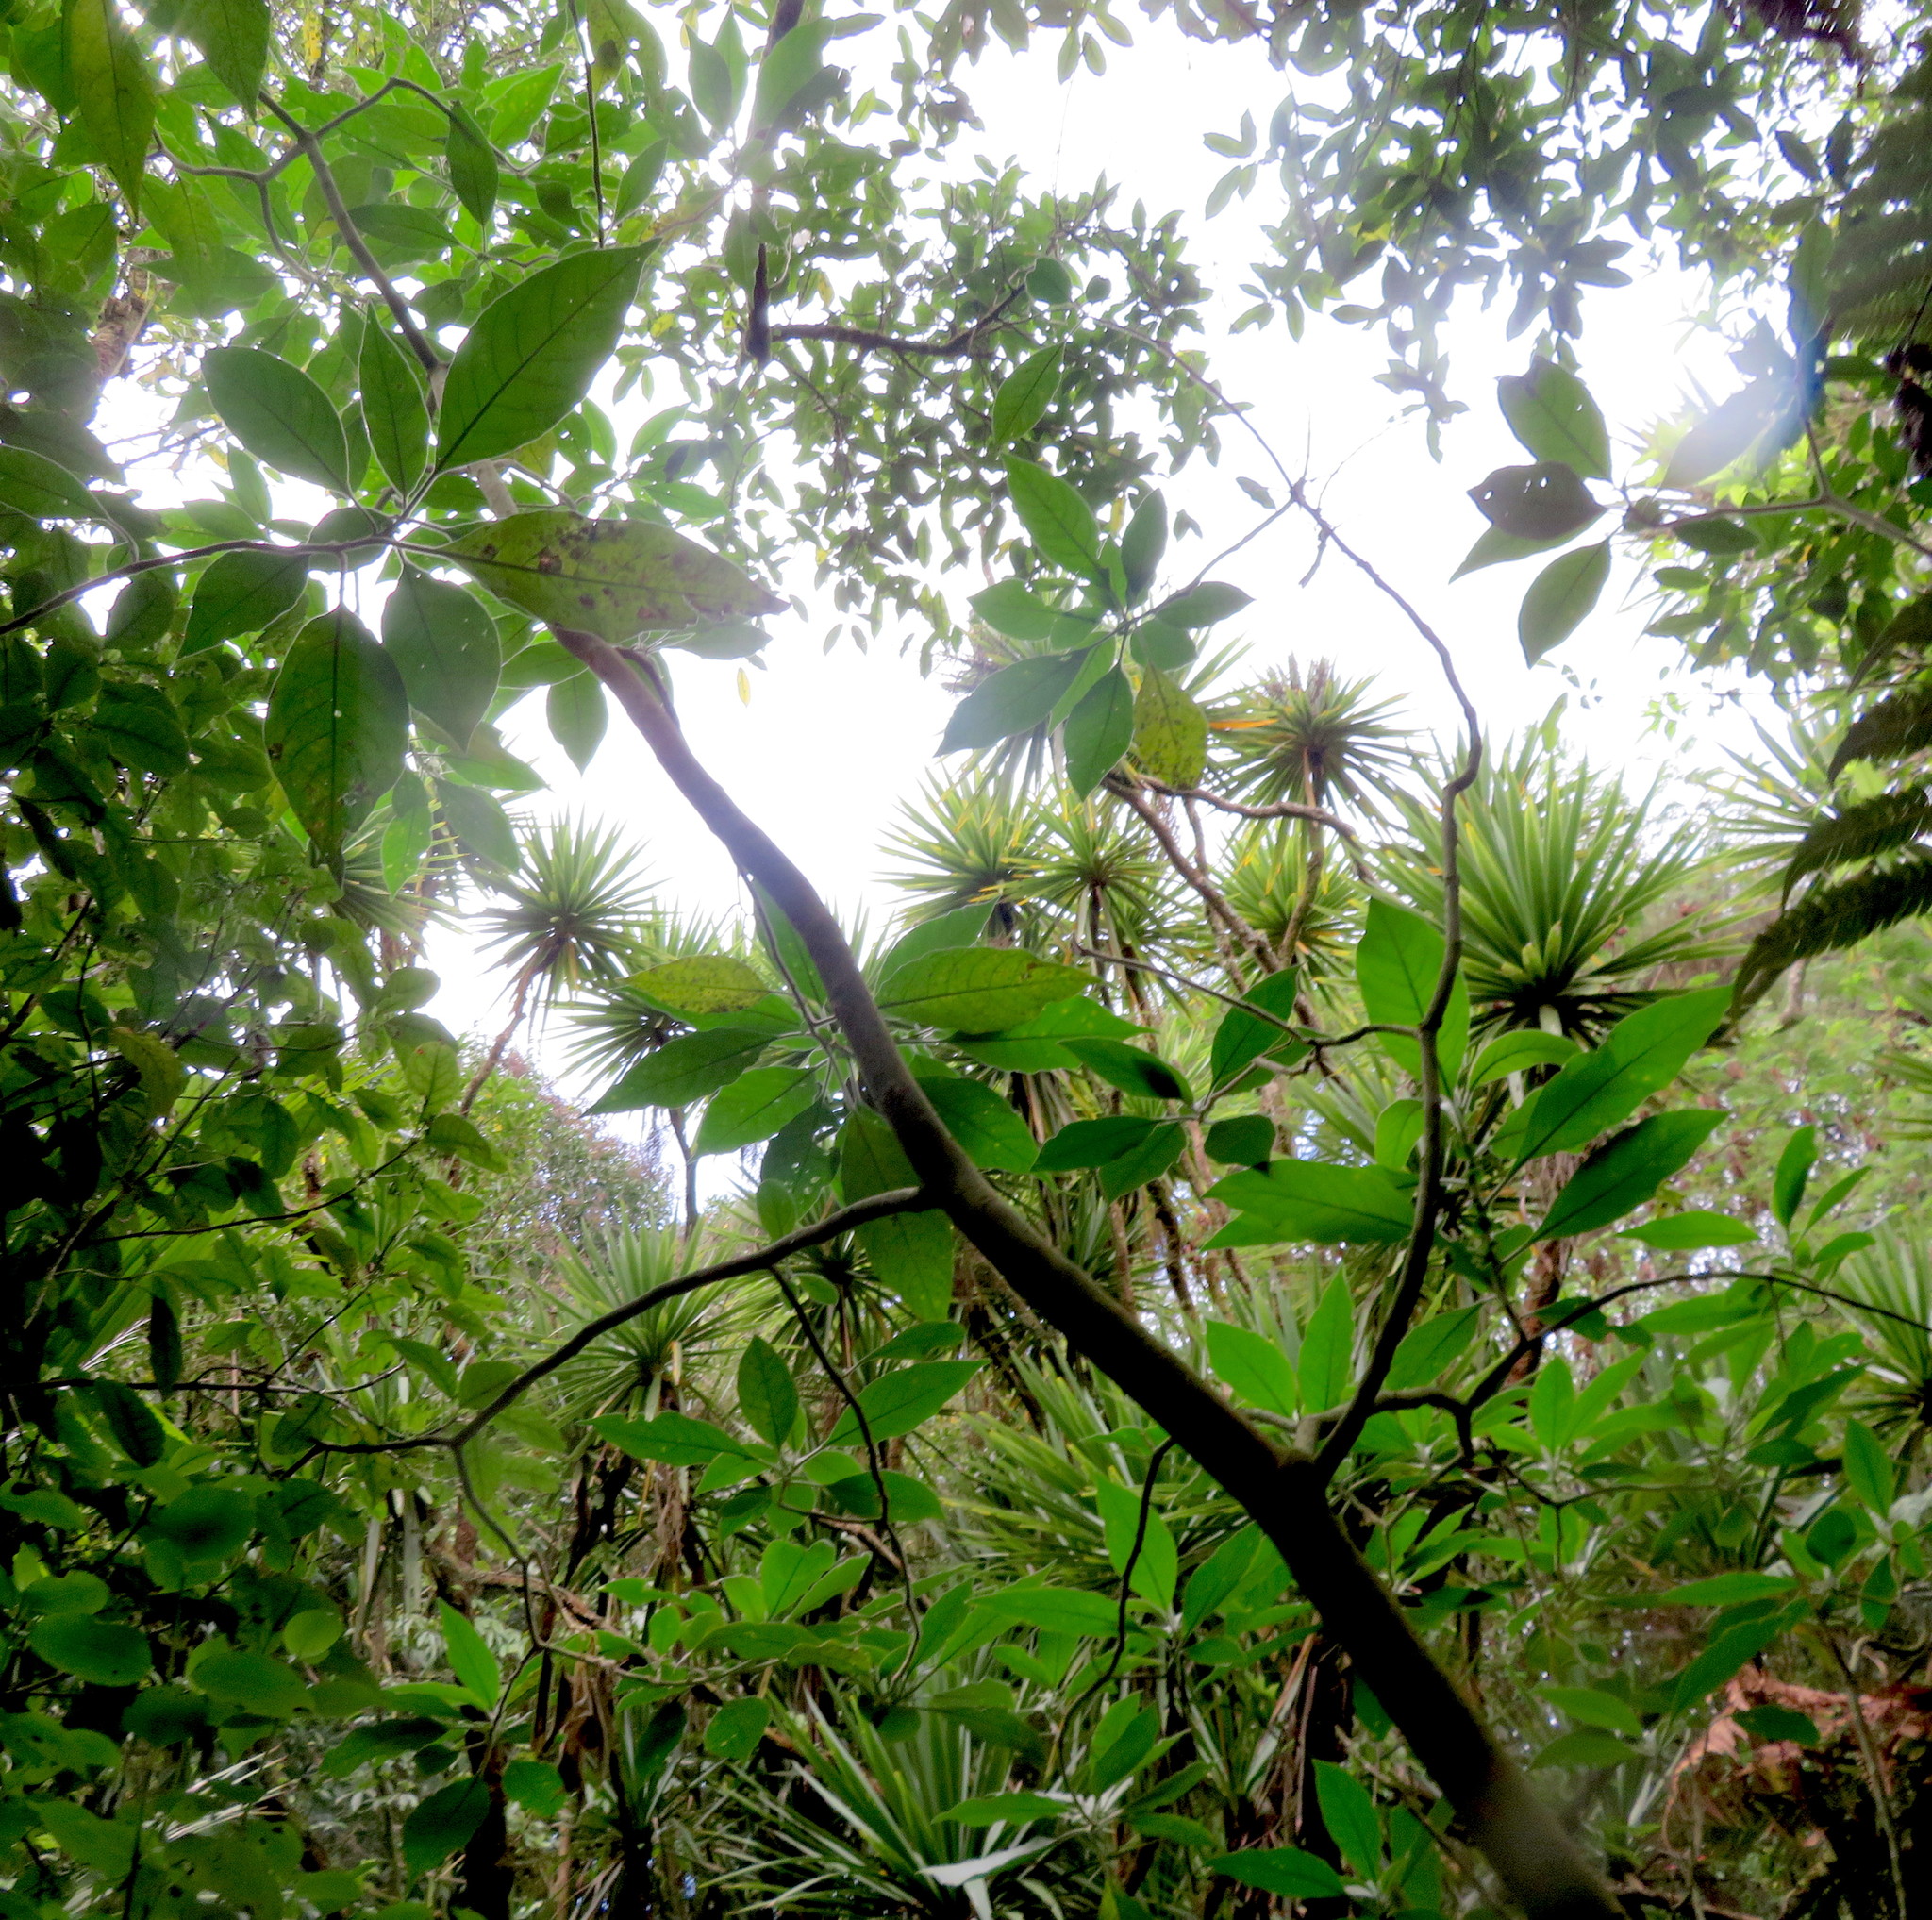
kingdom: Plantae
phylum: Tracheophyta
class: Magnoliopsida
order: Solanales
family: Solanaceae
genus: Solanum
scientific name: Solanum mauritianum
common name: Earleaf nightshade
